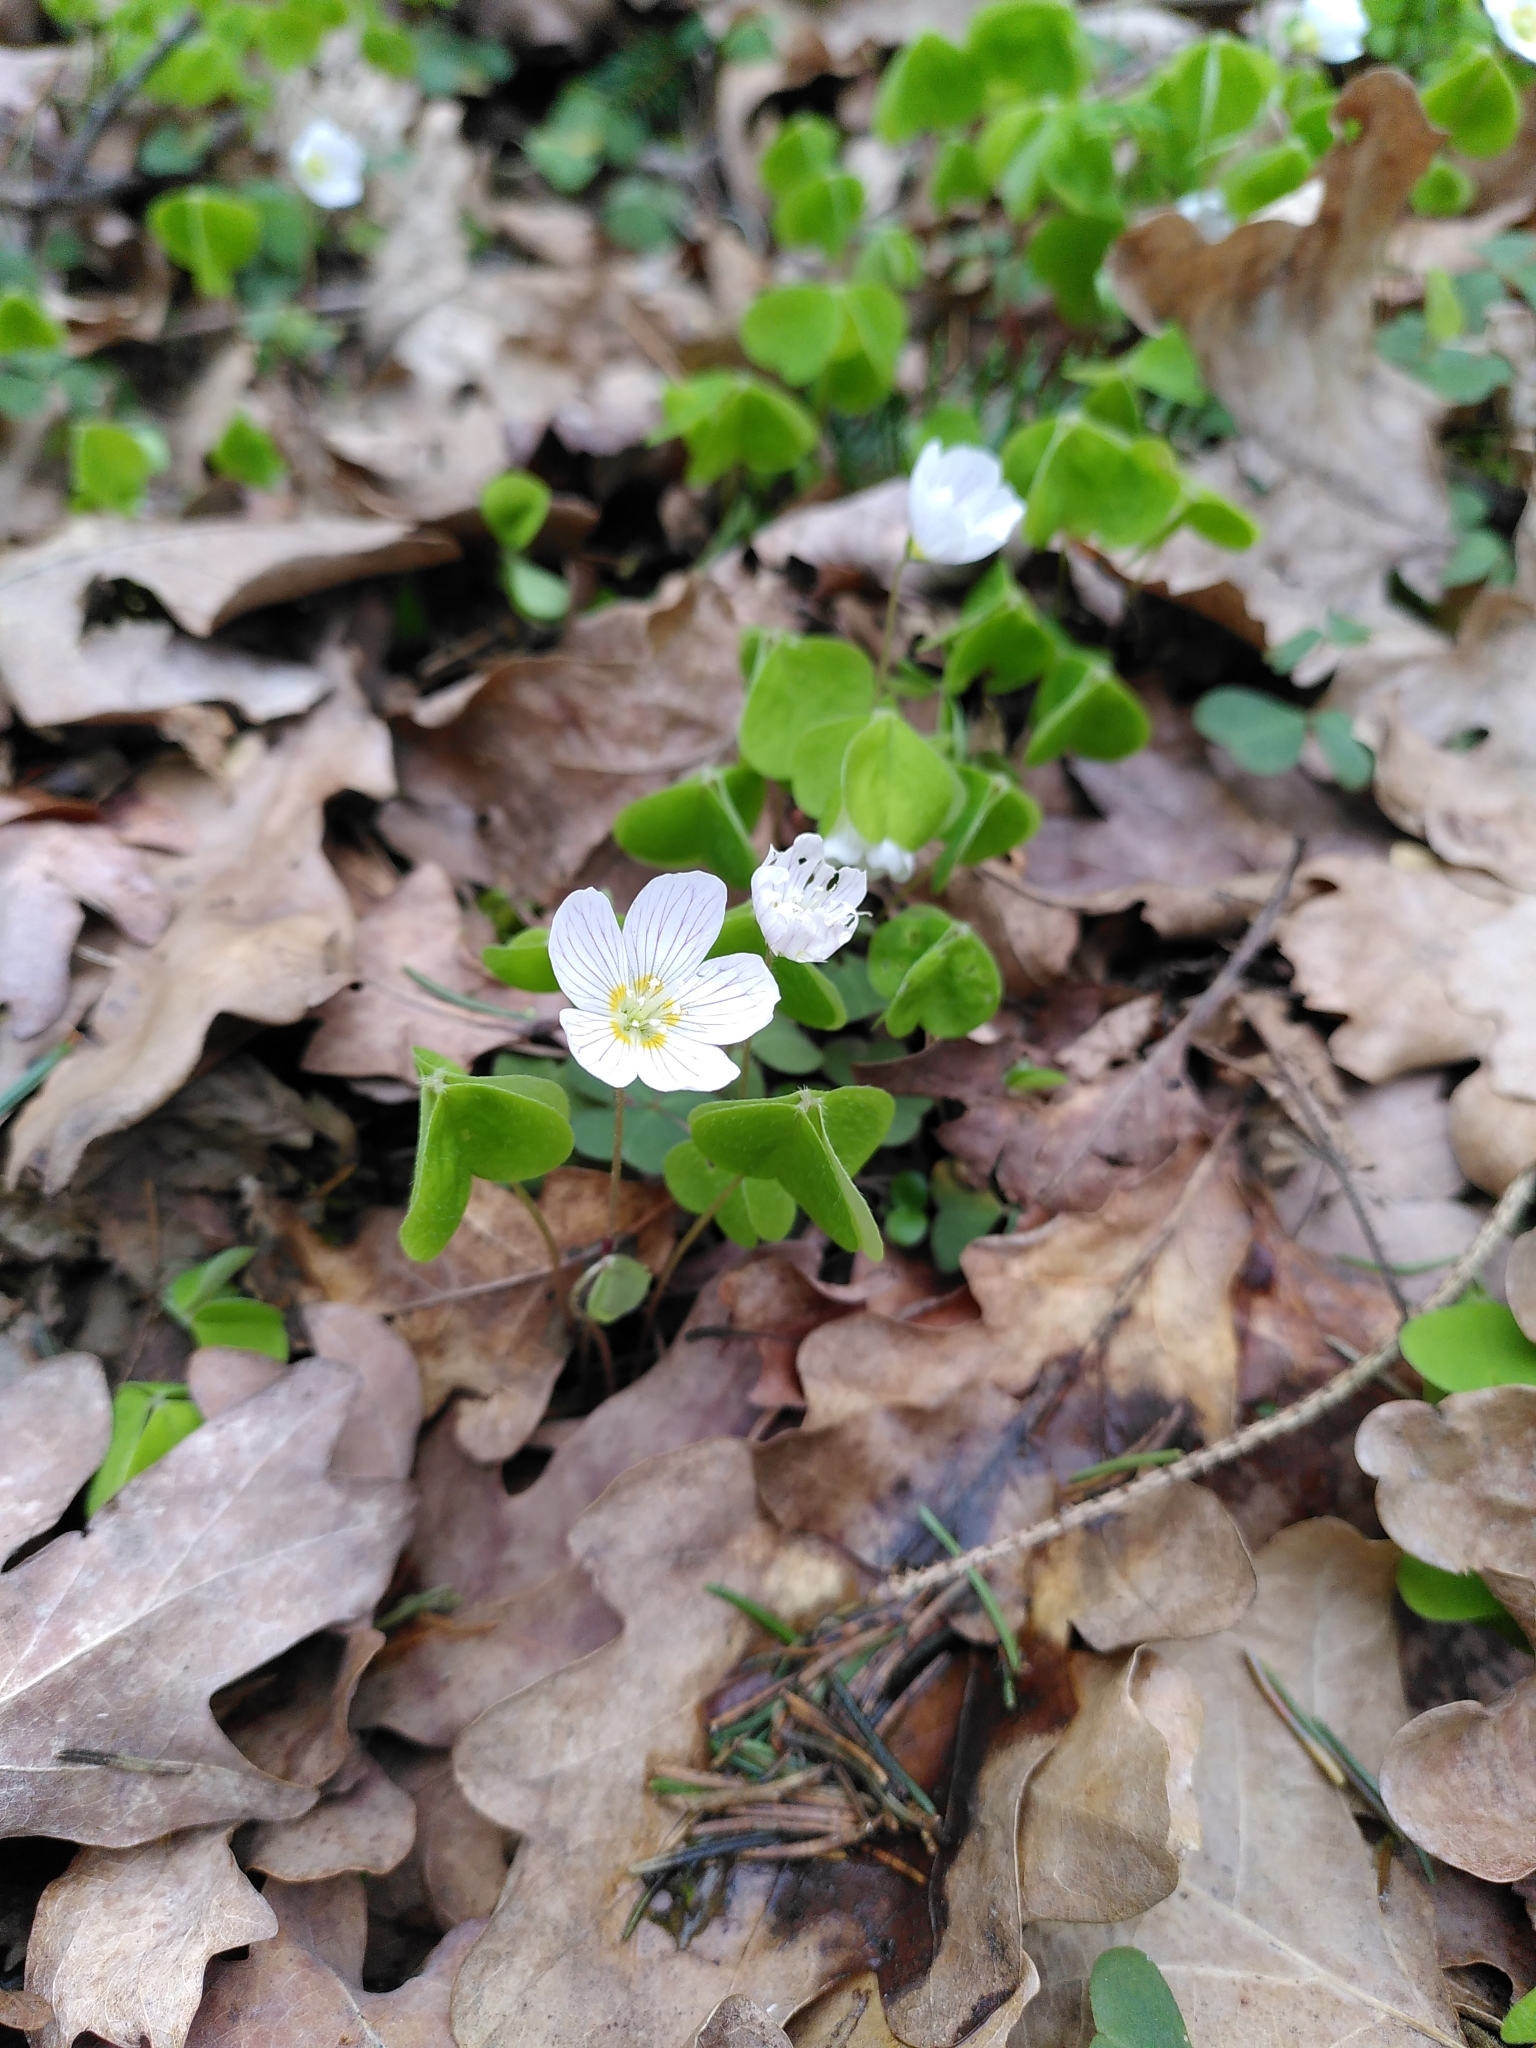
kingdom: Plantae
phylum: Tracheophyta
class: Magnoliopsida
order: Oxalidales
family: Oxalidaceae
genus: Oxalis
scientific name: Oxalis acetosella
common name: Wood-sorrel
